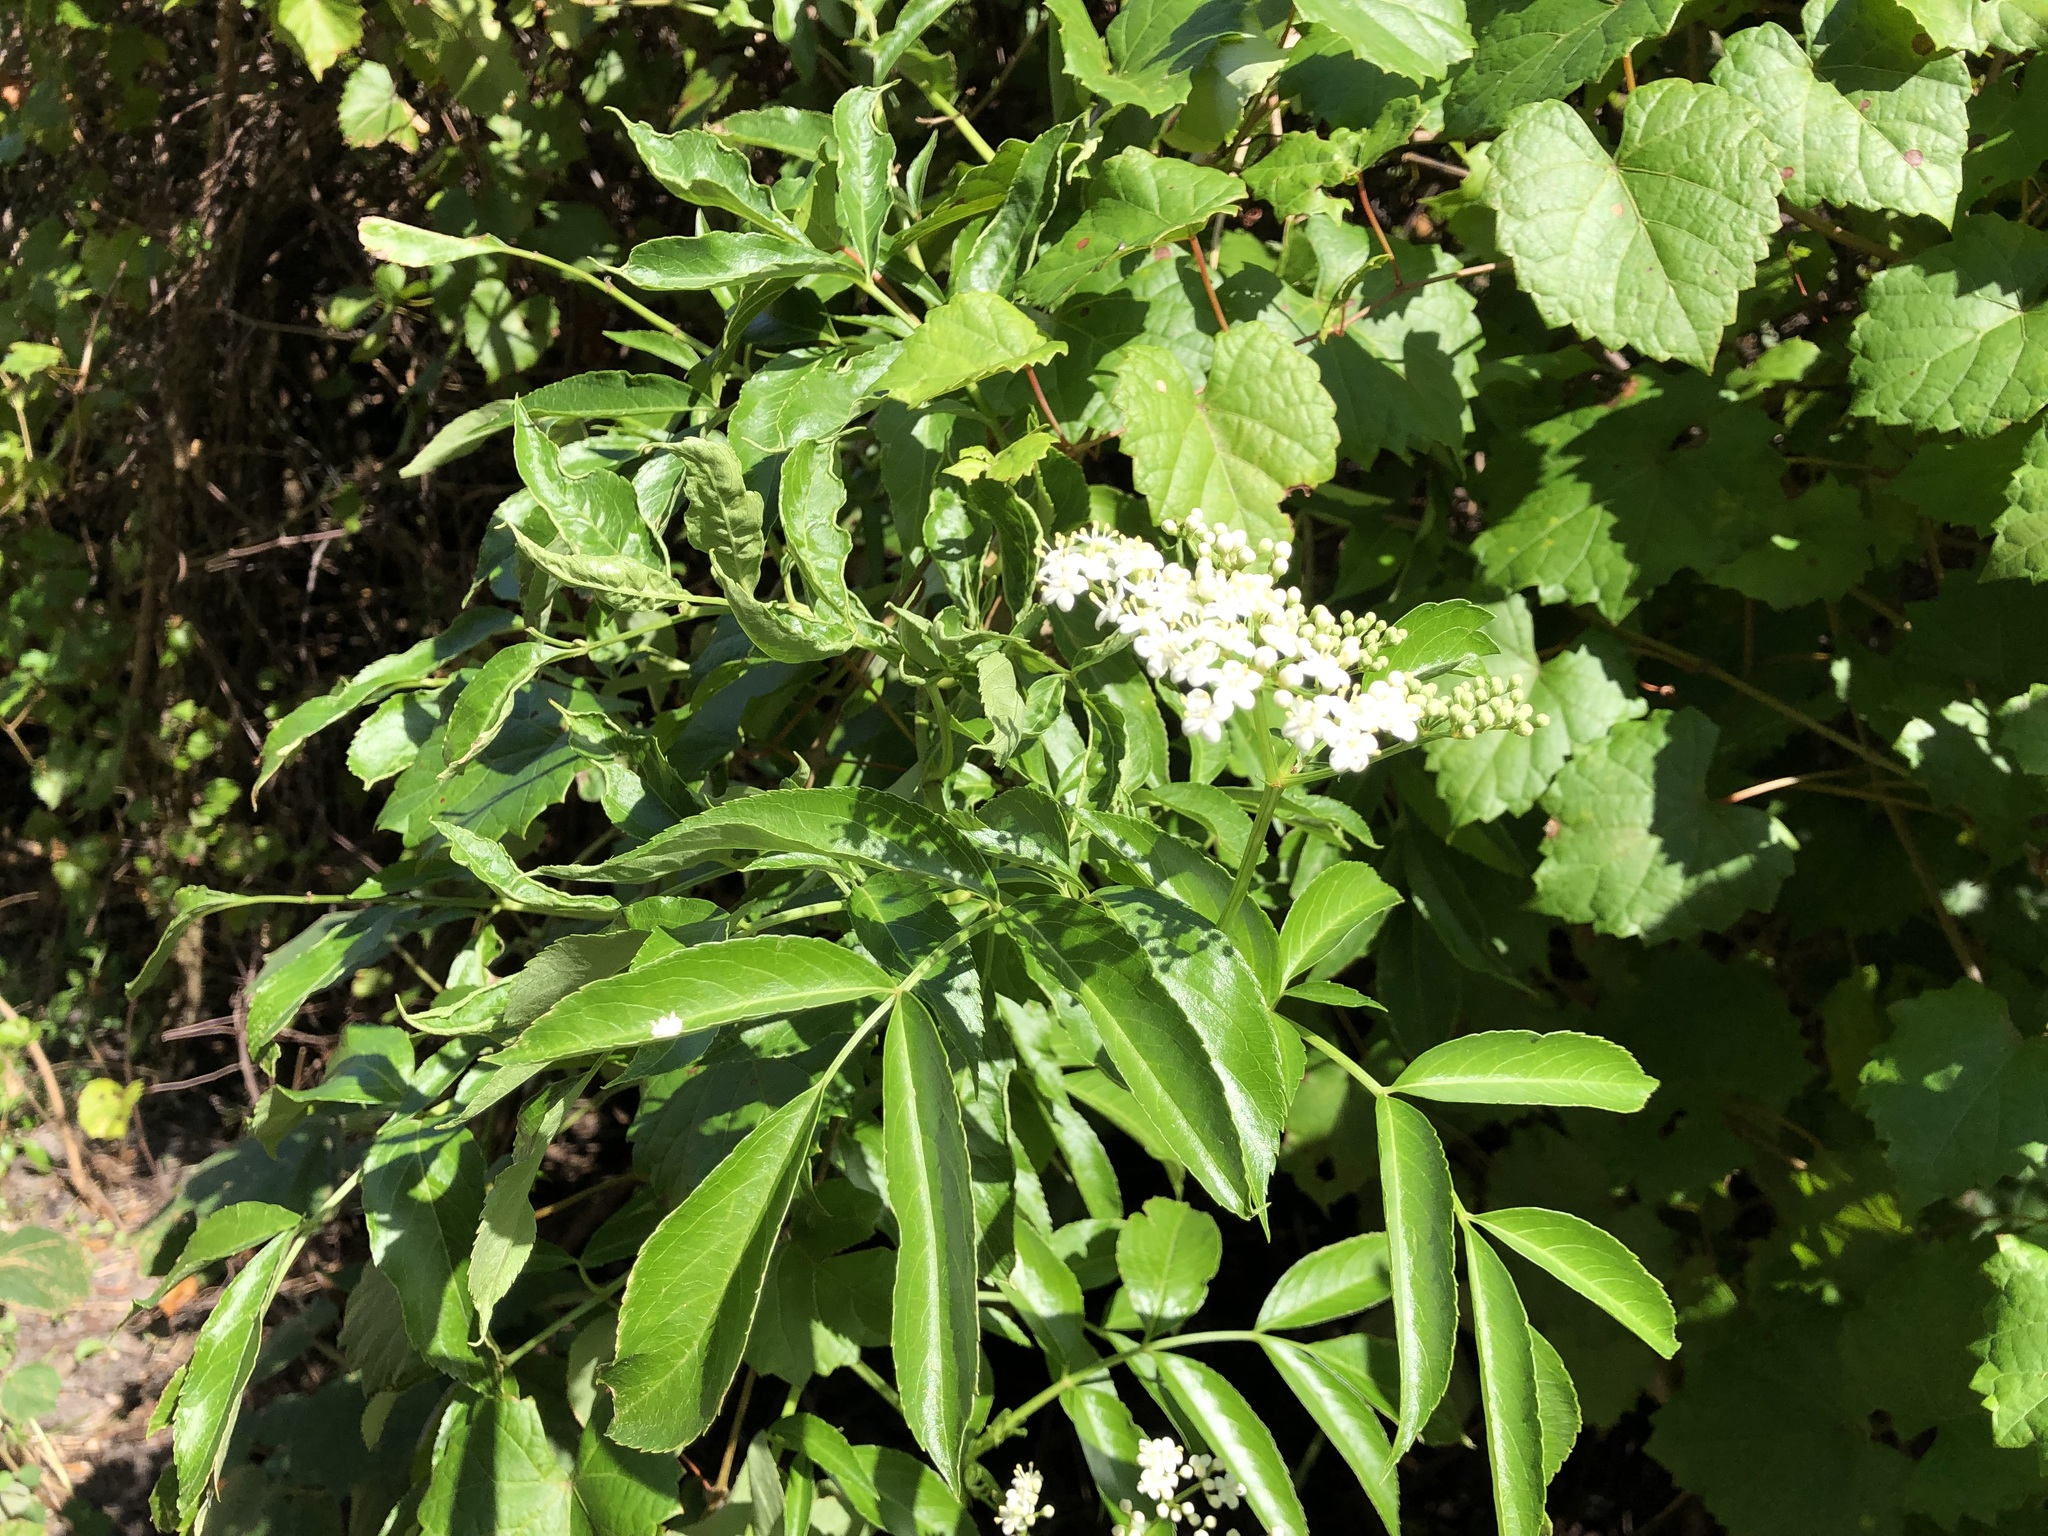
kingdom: Plantae
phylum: Tracheophyta
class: Magnoliopsida
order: Dipsacales
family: Viburnaceae
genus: Sambucus
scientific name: Sambucus canadensis
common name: American elder
